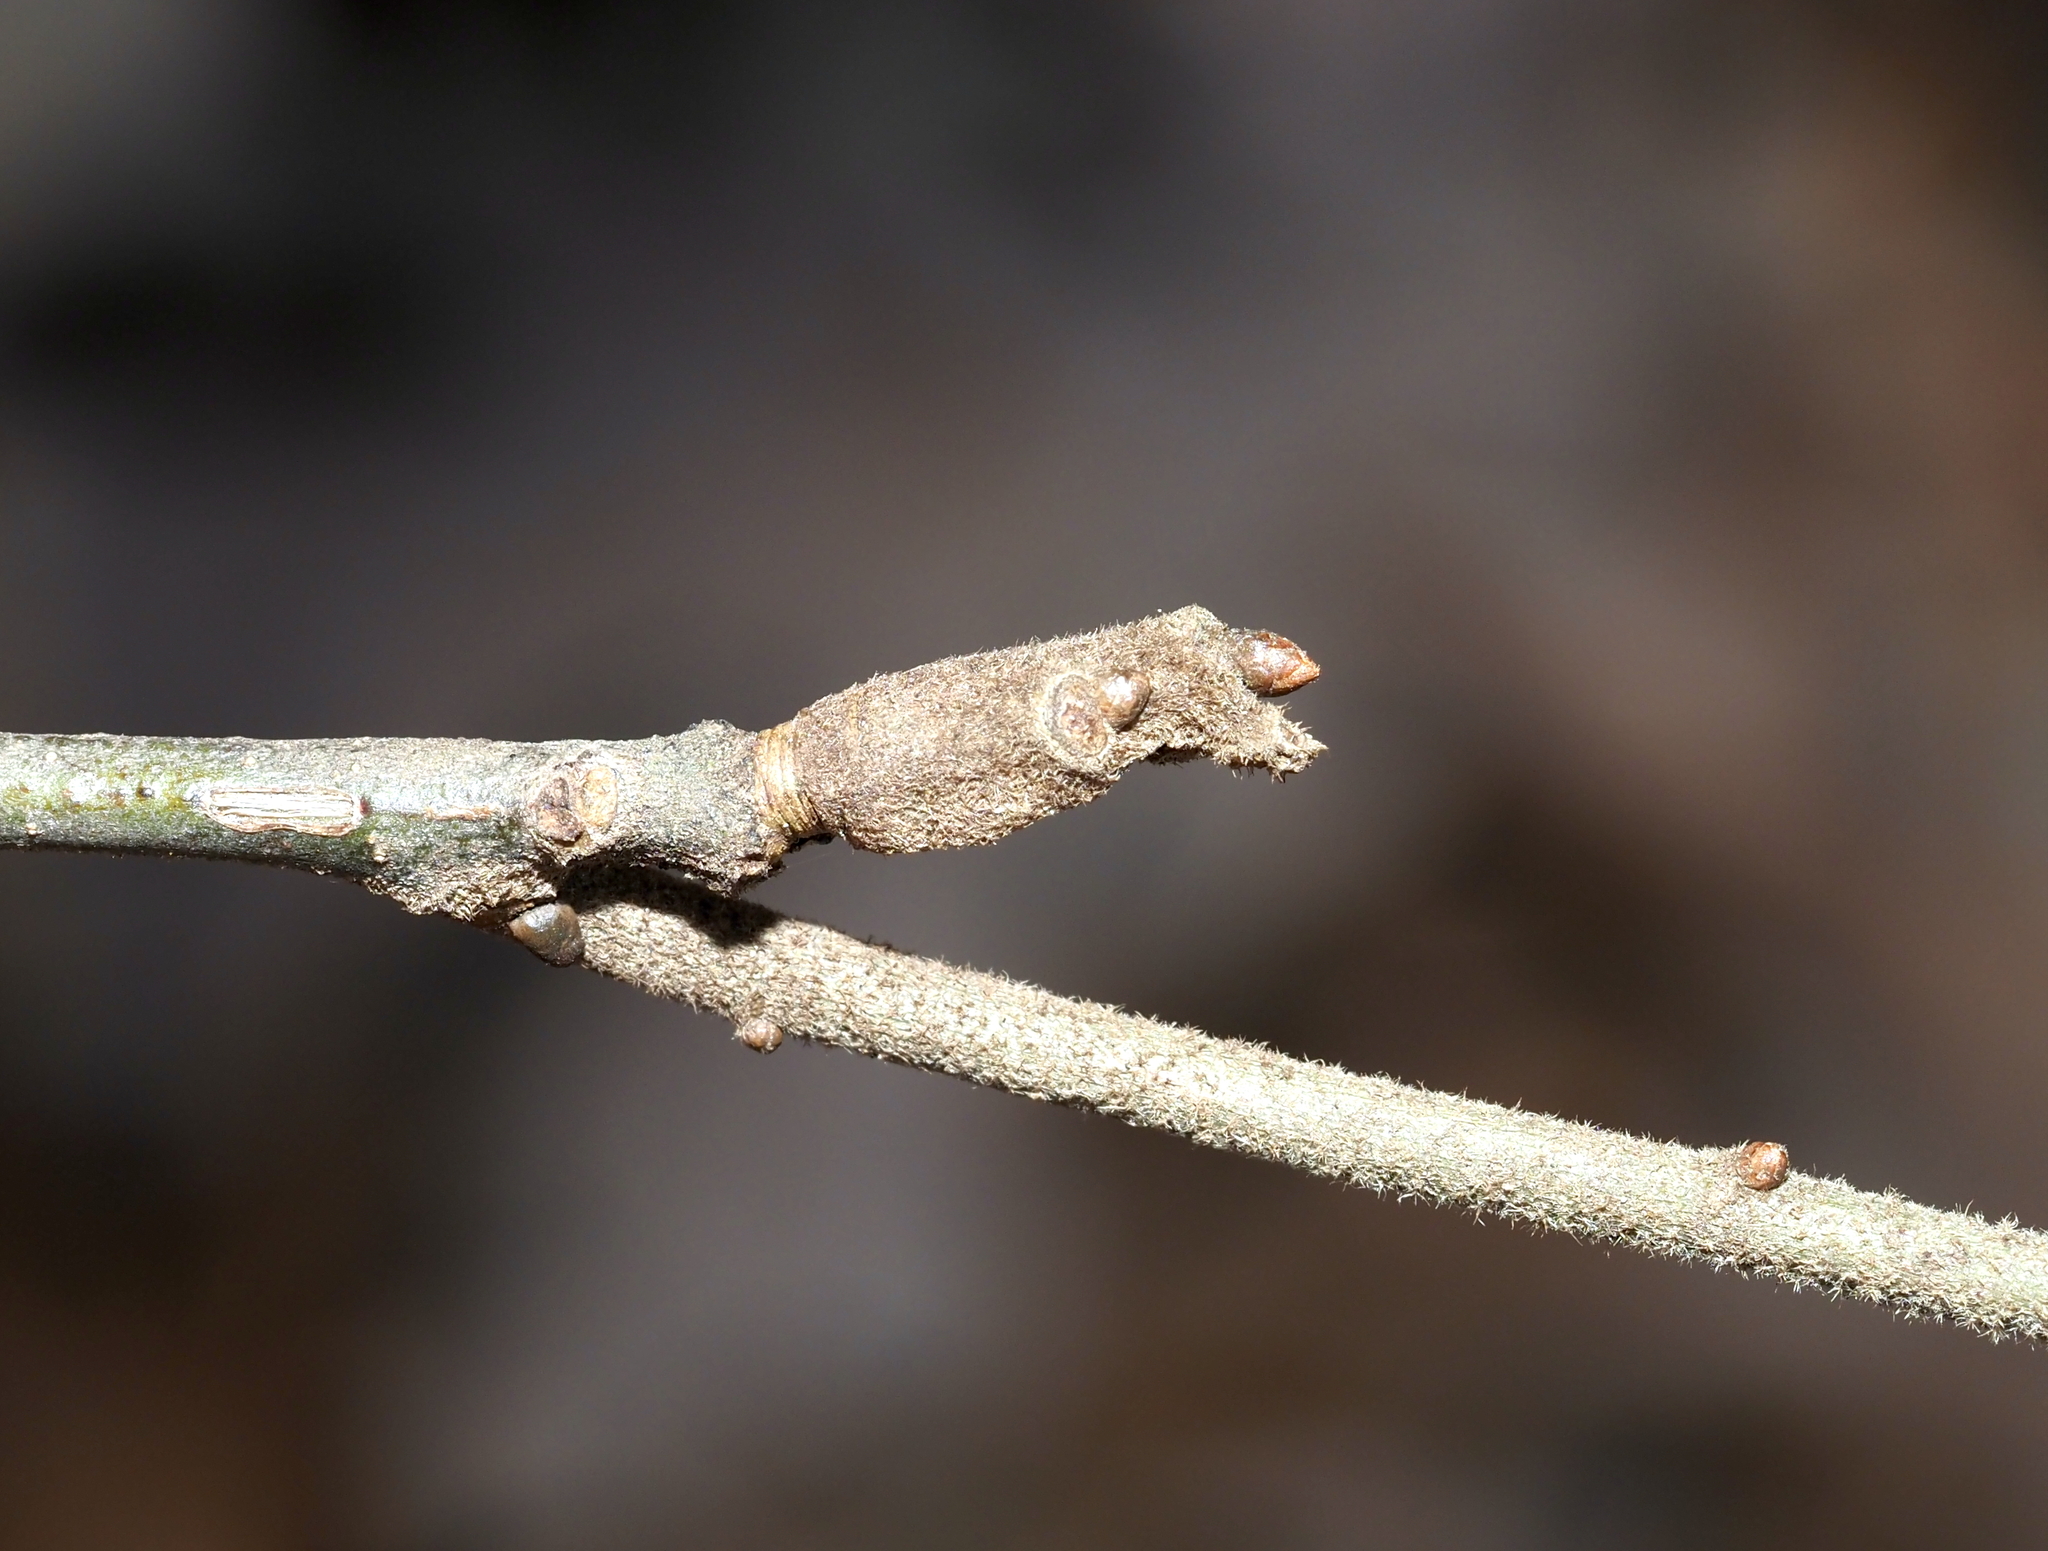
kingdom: Animalia
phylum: Arthropoda
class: Insecta
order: Hymenoptera
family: Cynipidae
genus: Callirhytis
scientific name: Callirhytis
